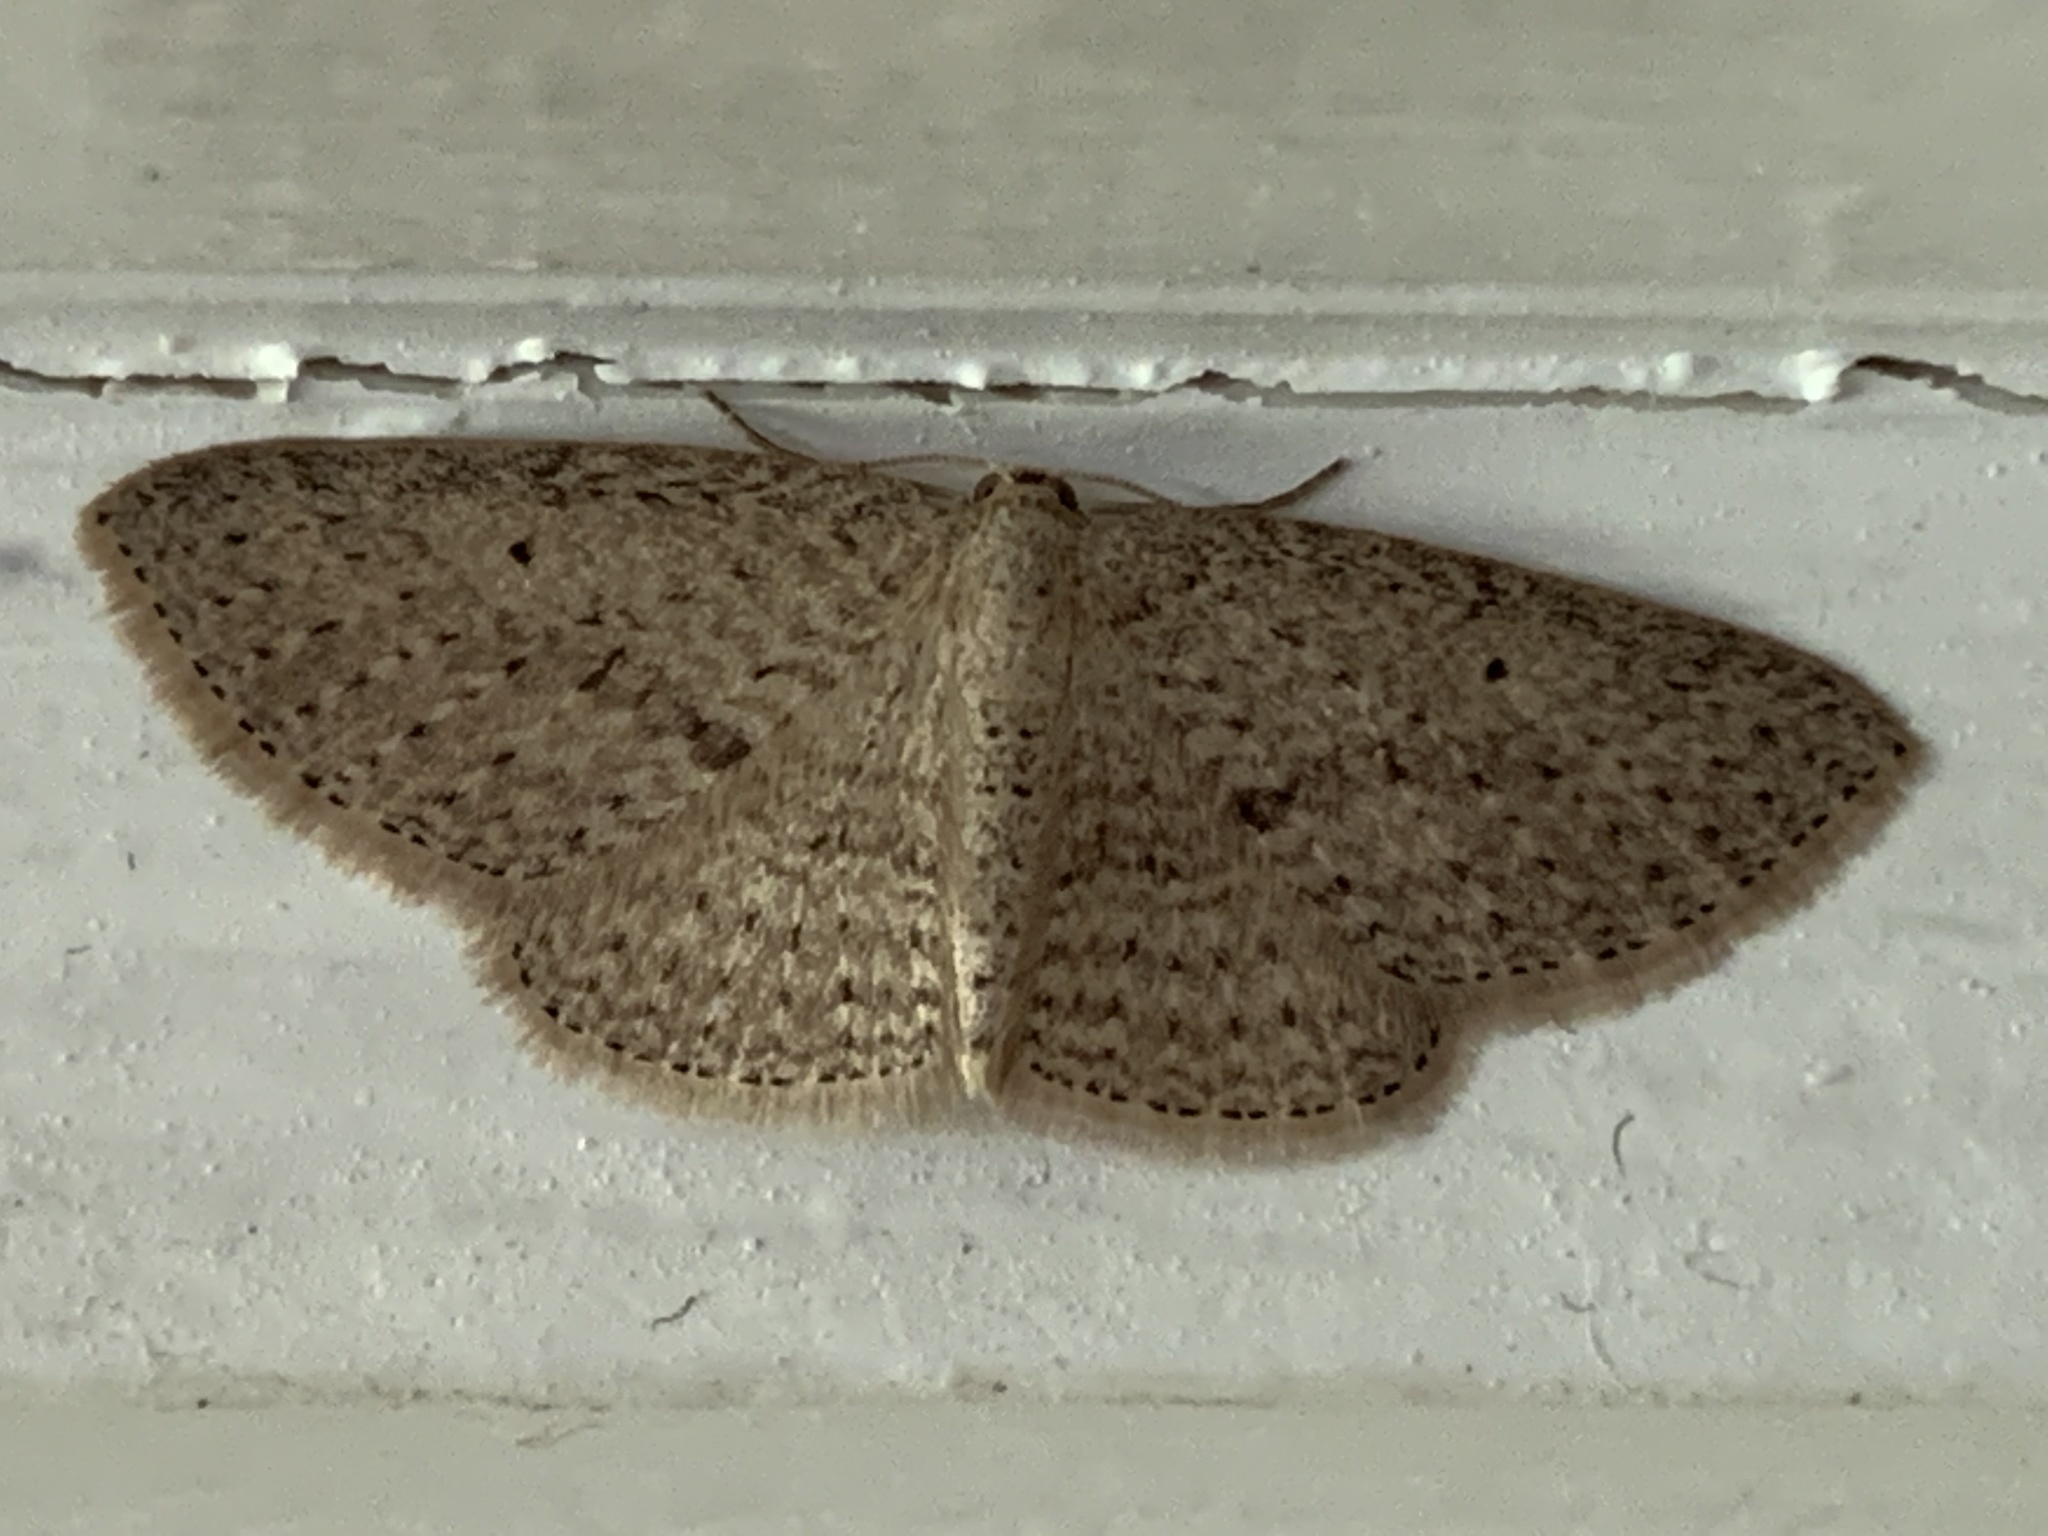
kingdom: Animalia
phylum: Arthropoda
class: Insecta
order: Lepidoptera
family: Geometridae
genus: Poecilasthena
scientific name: Poecilasthena schistaria
